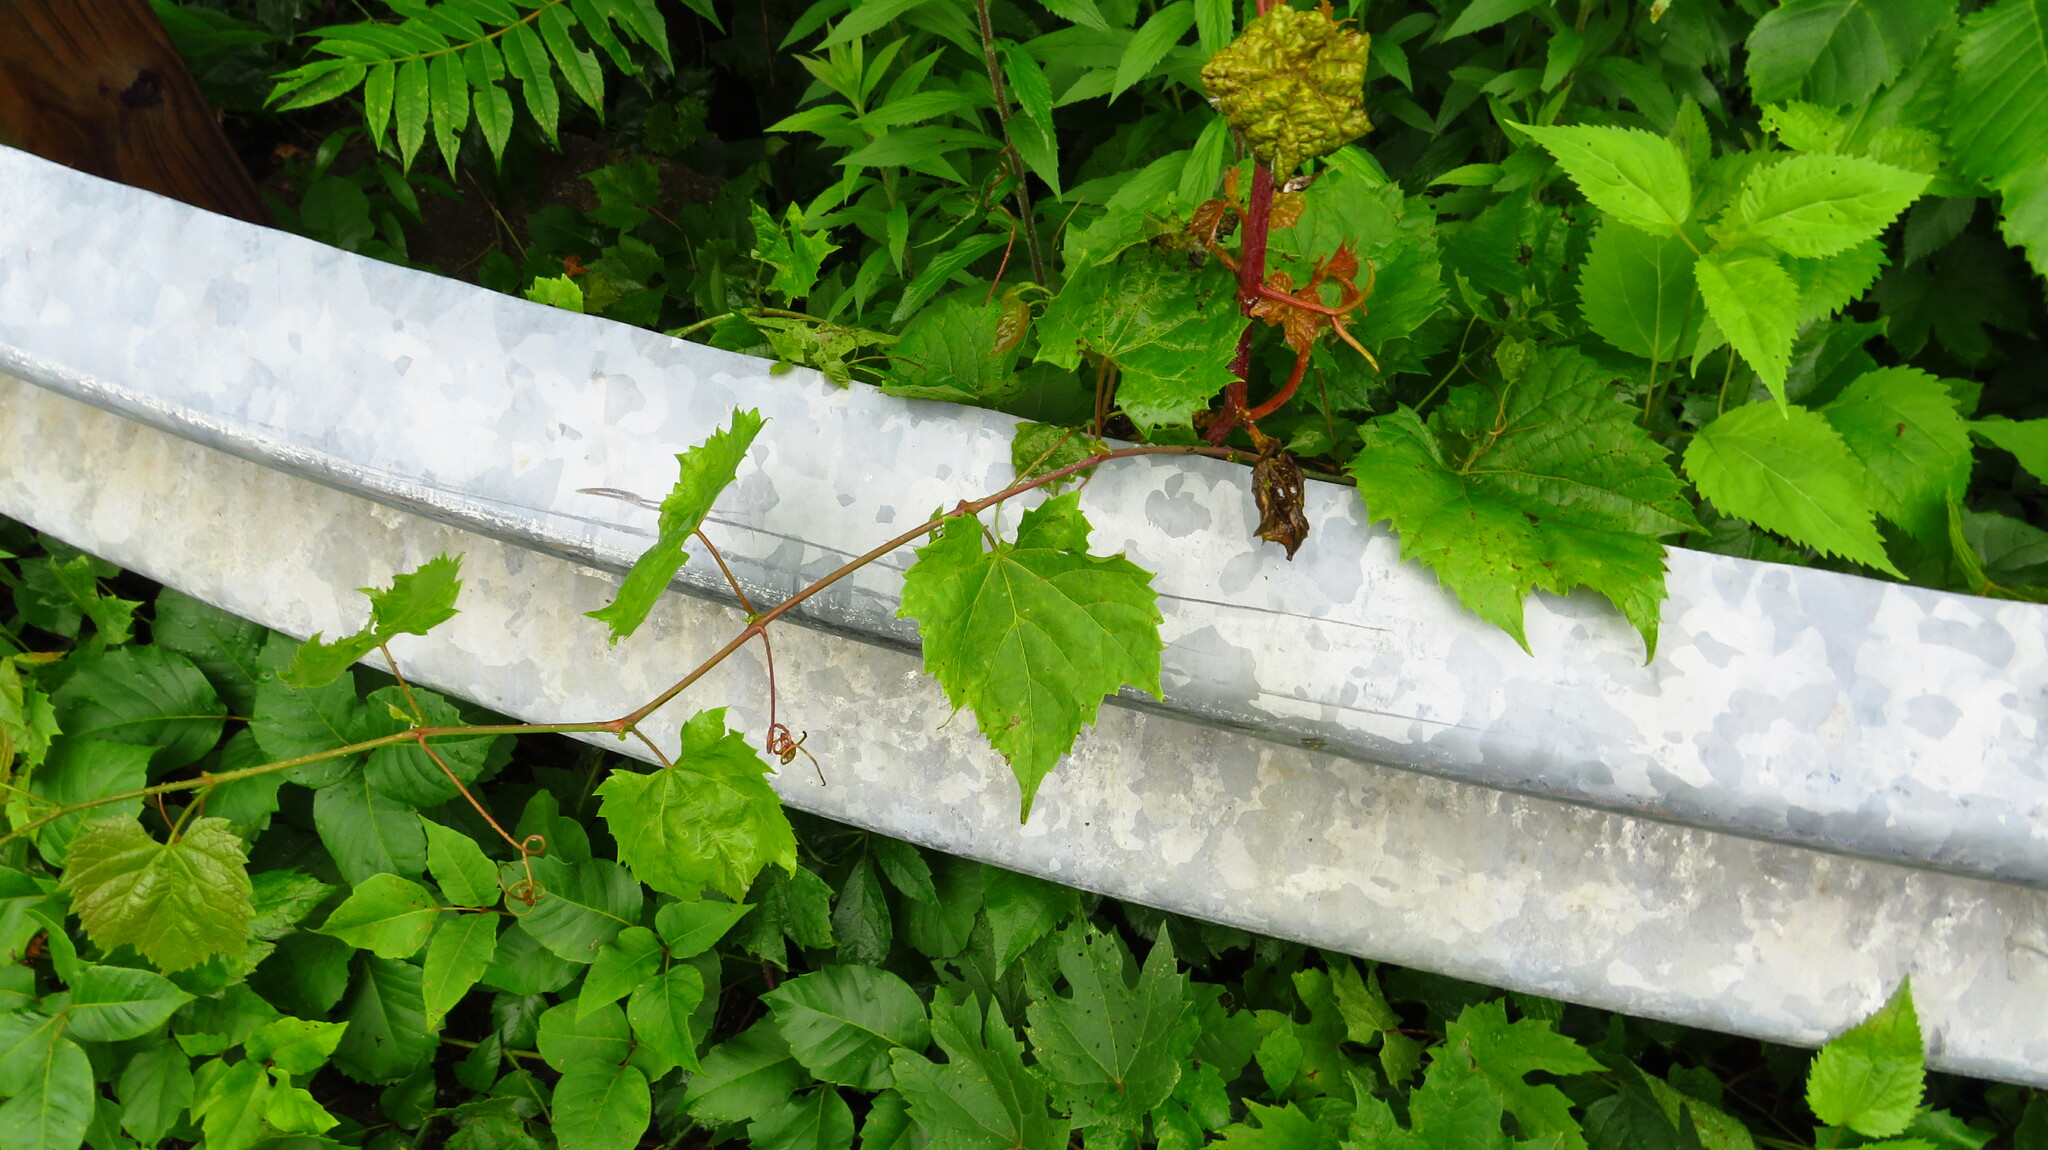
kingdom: Plantae
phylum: Tracheophyta
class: Magnoliopsida
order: Vitales
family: Vitaceae
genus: Vitis
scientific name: Vitis riparia
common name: Frost grape
